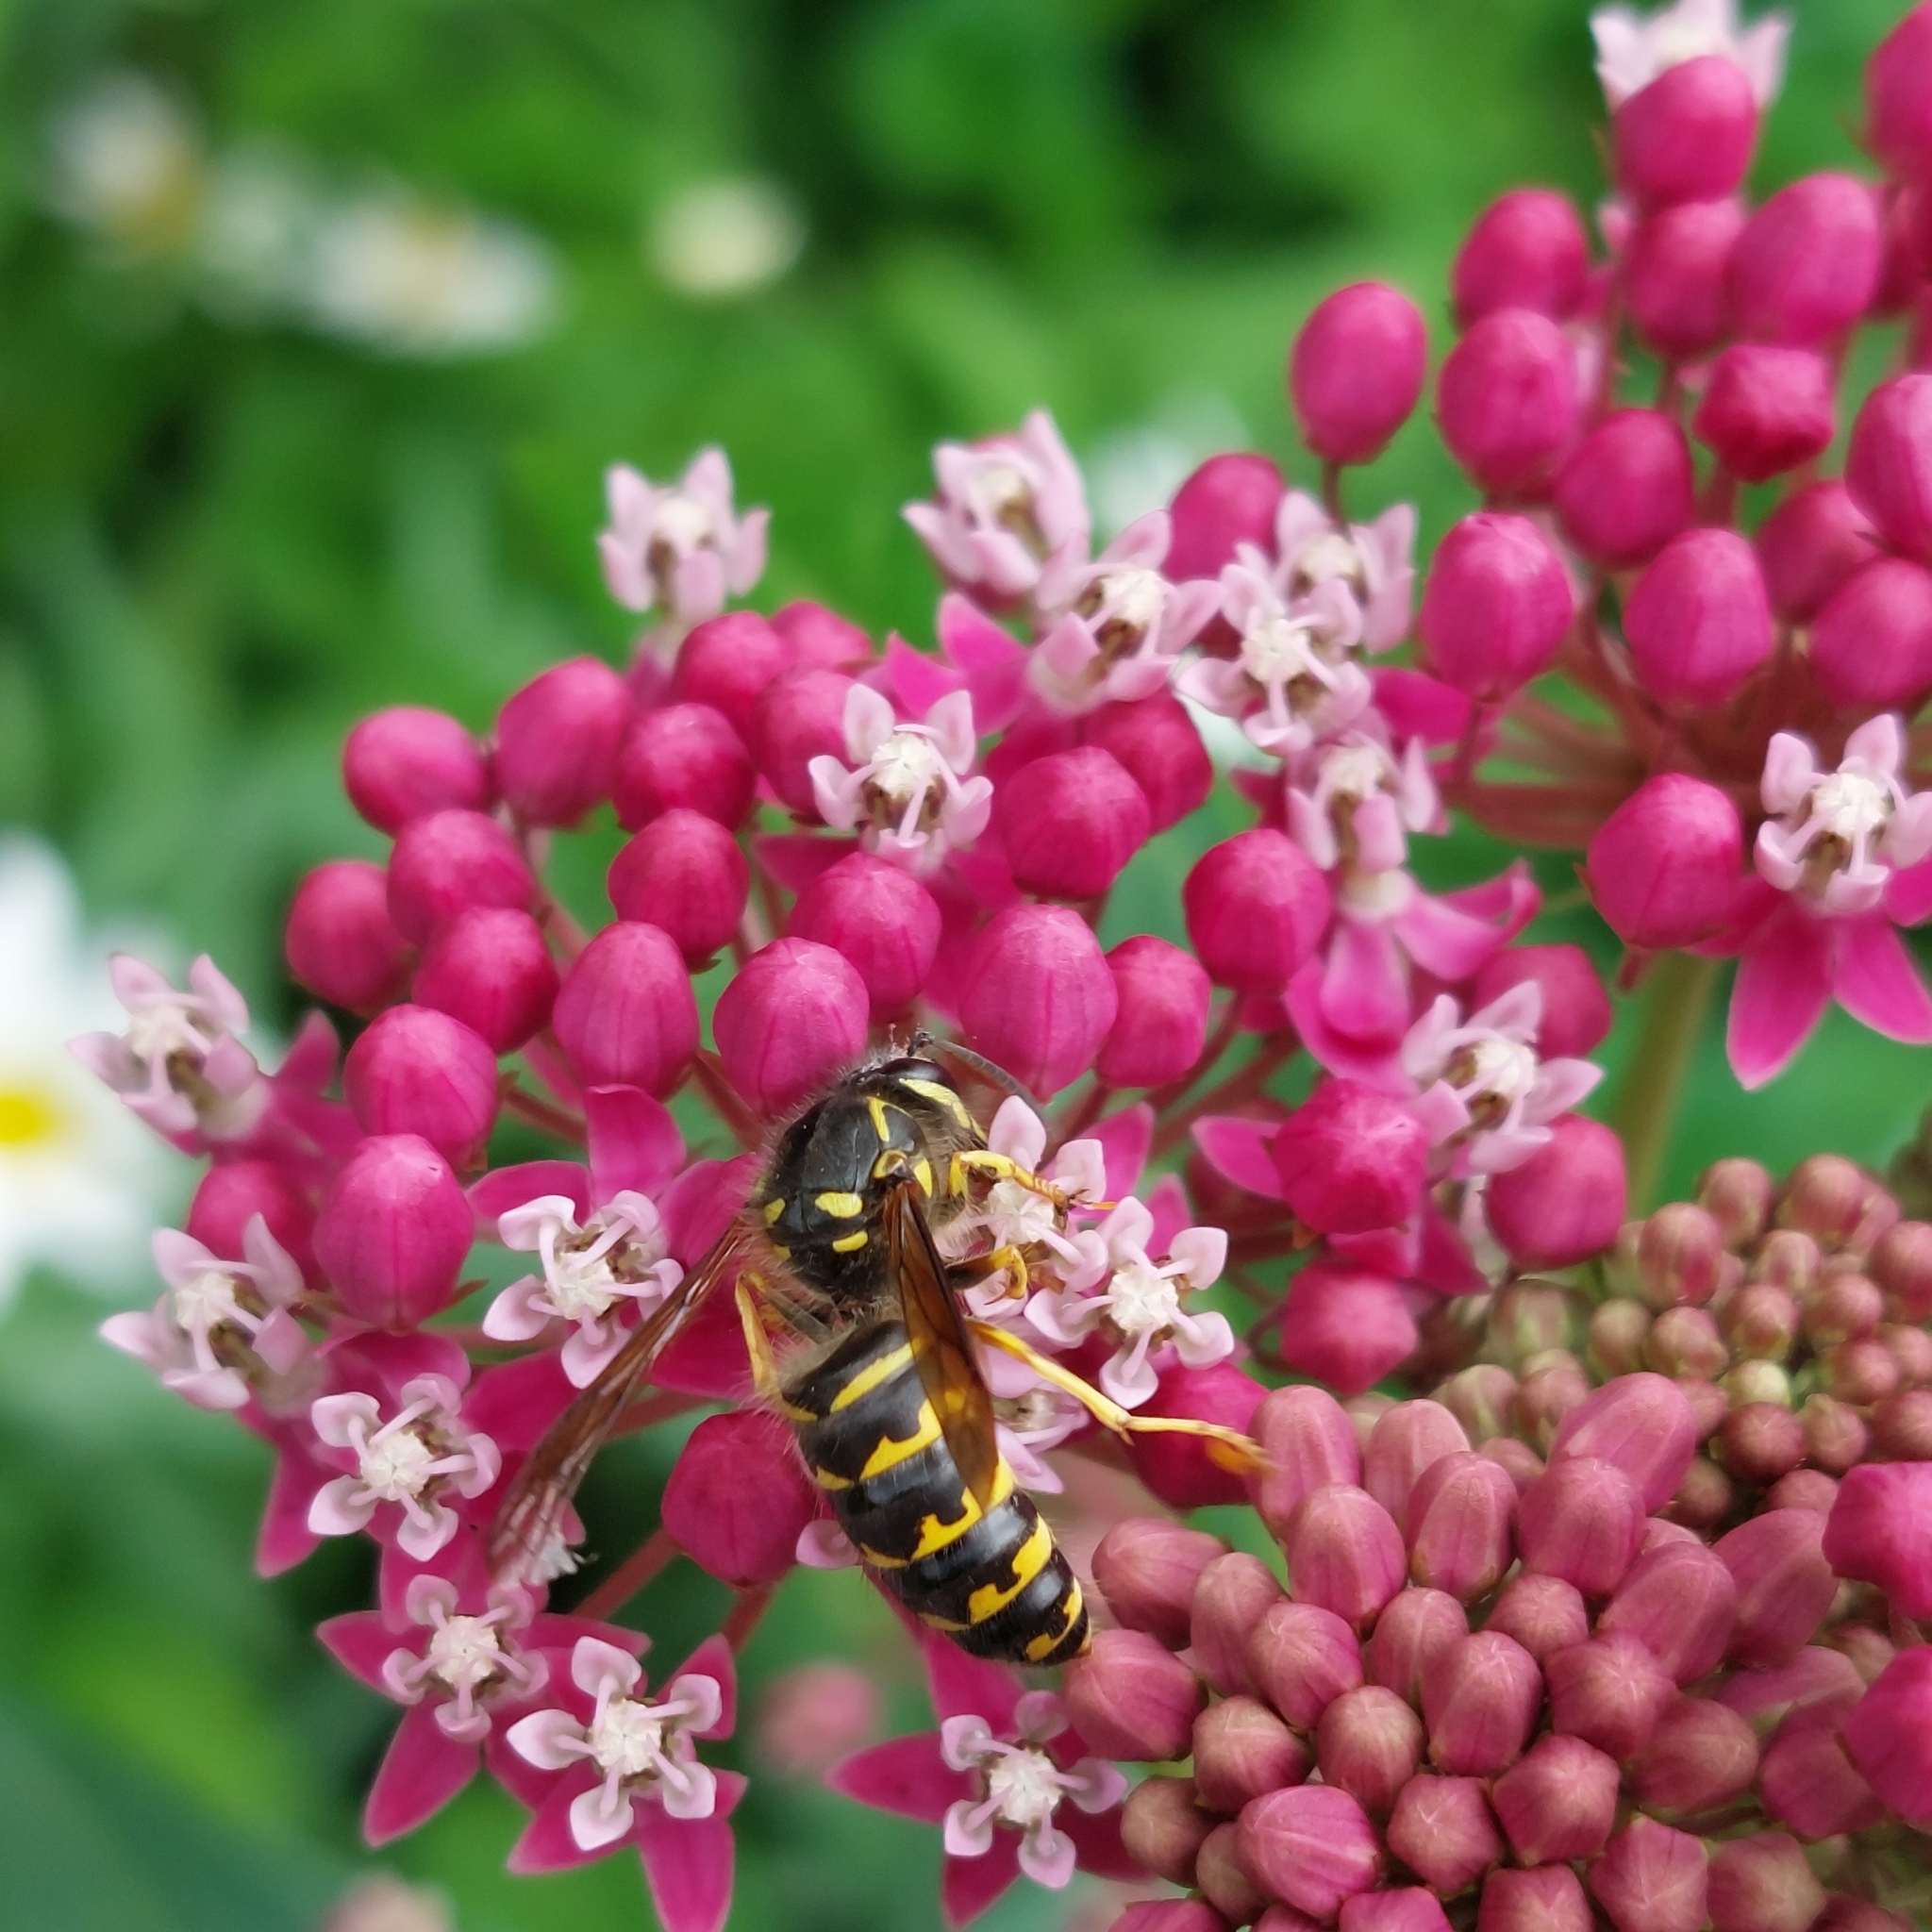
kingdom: Animalia
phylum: Arthropoda
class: Insecta
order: Hymenoptera
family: Vespidae
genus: Dolichovespula
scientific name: Dolichovespula arenaria
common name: Aerial yellowjacket
